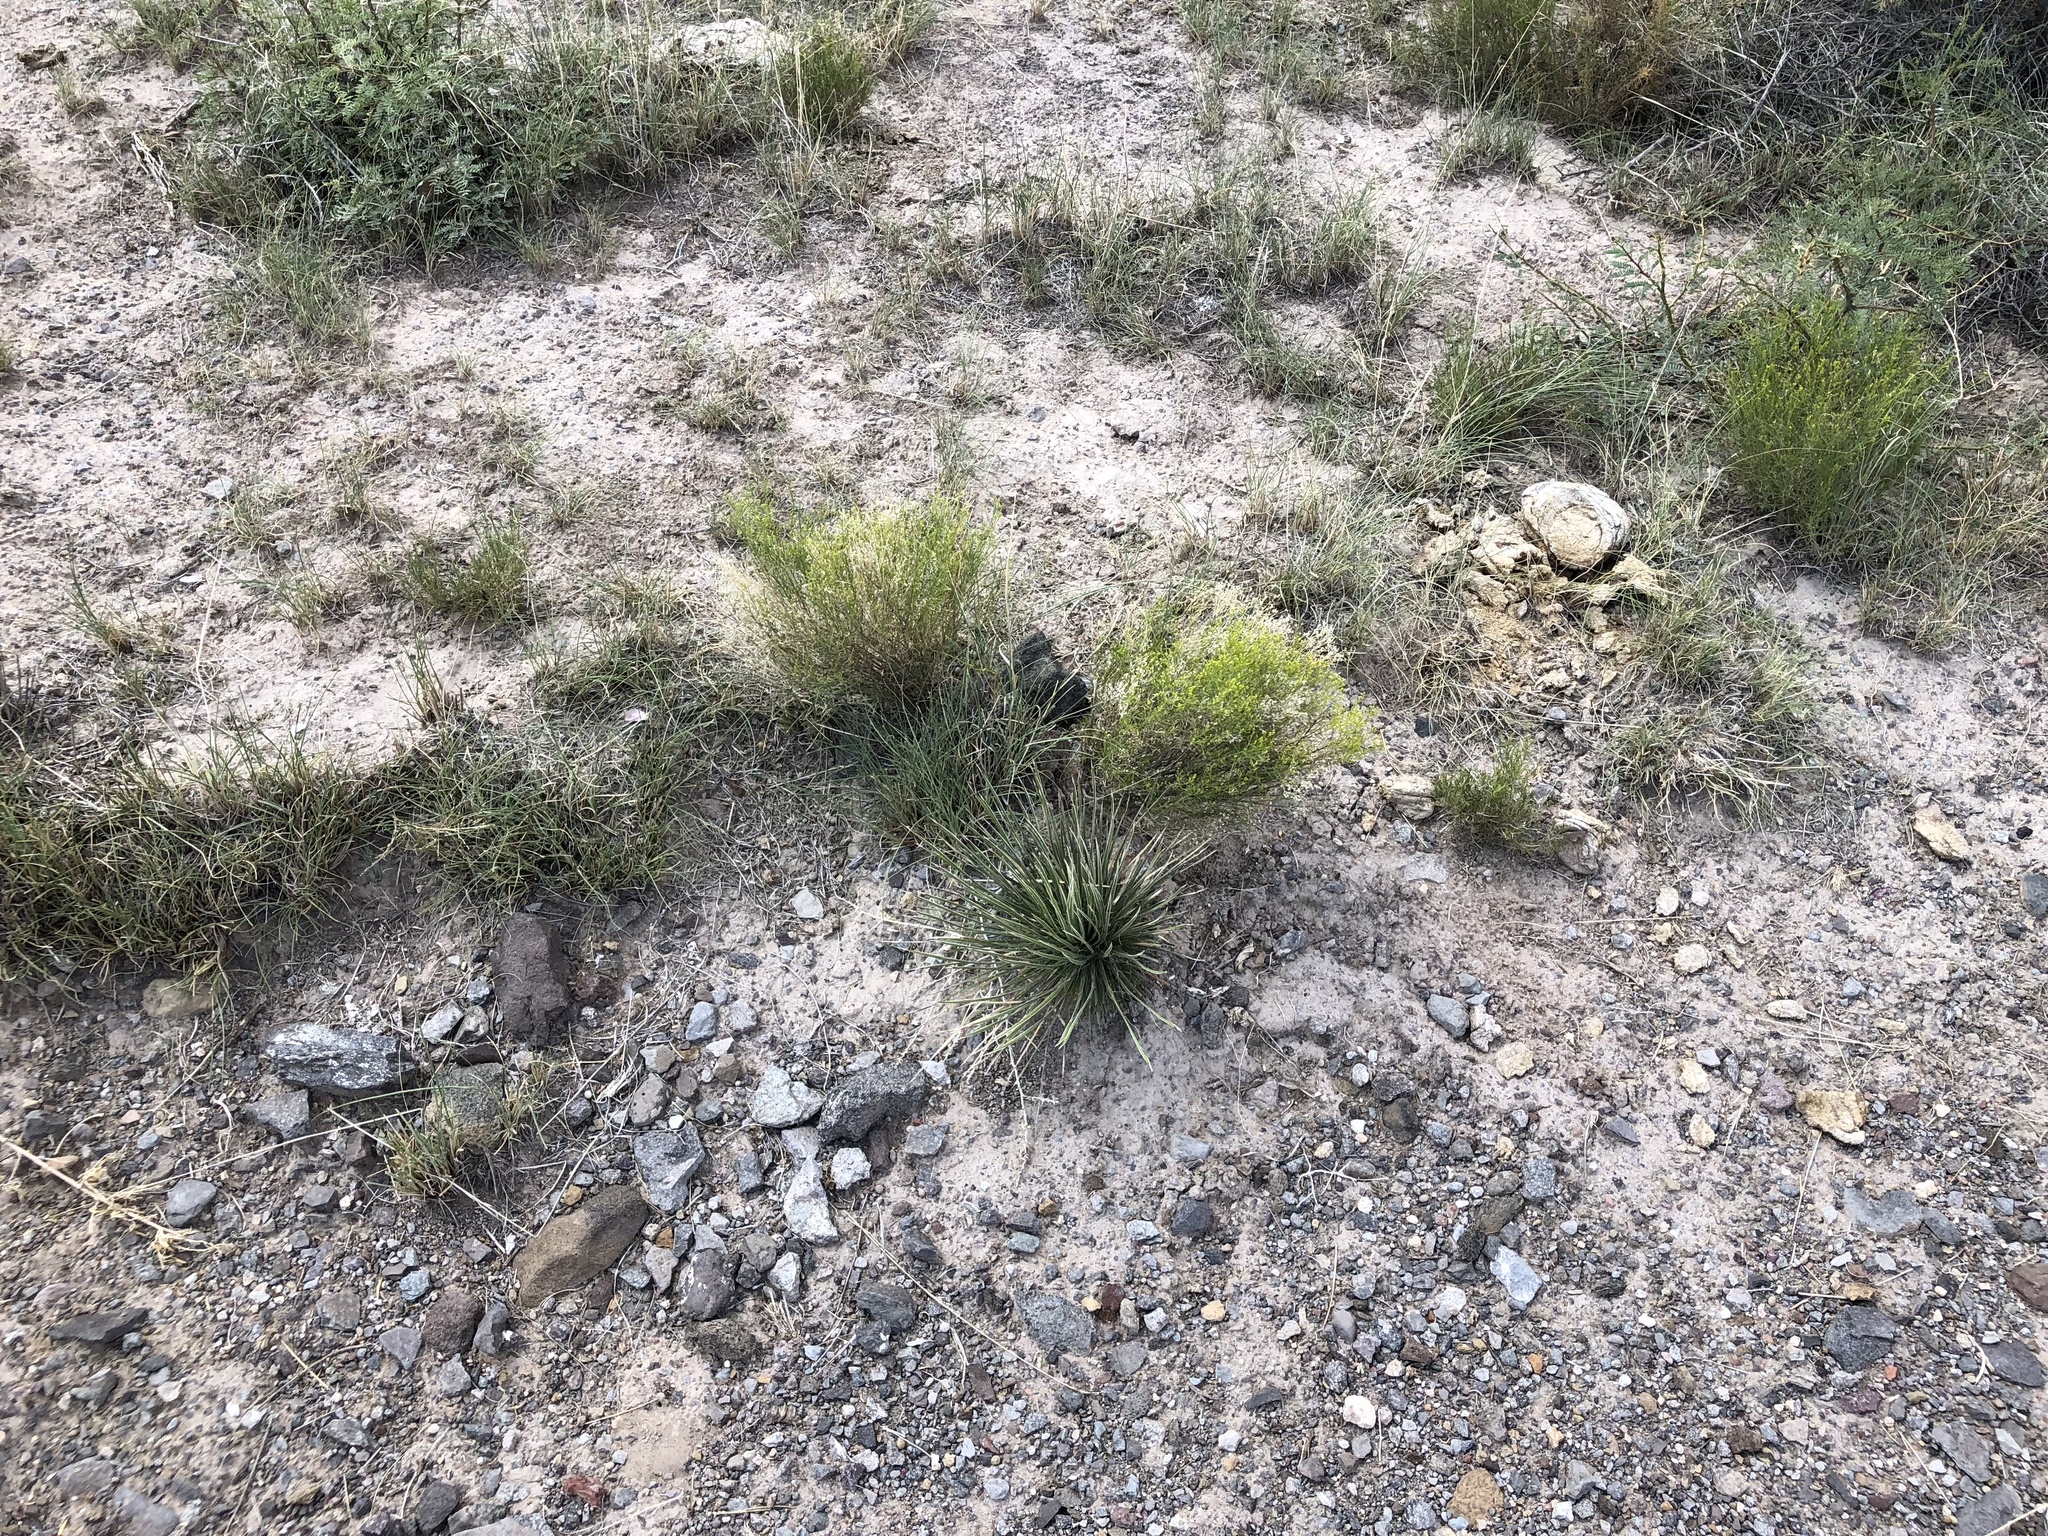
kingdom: Plantae
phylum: Tracheophyta
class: Liliopsida
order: Asparagales
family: Asparagaceae
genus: Yucca
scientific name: Yucca elata
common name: Palmella
